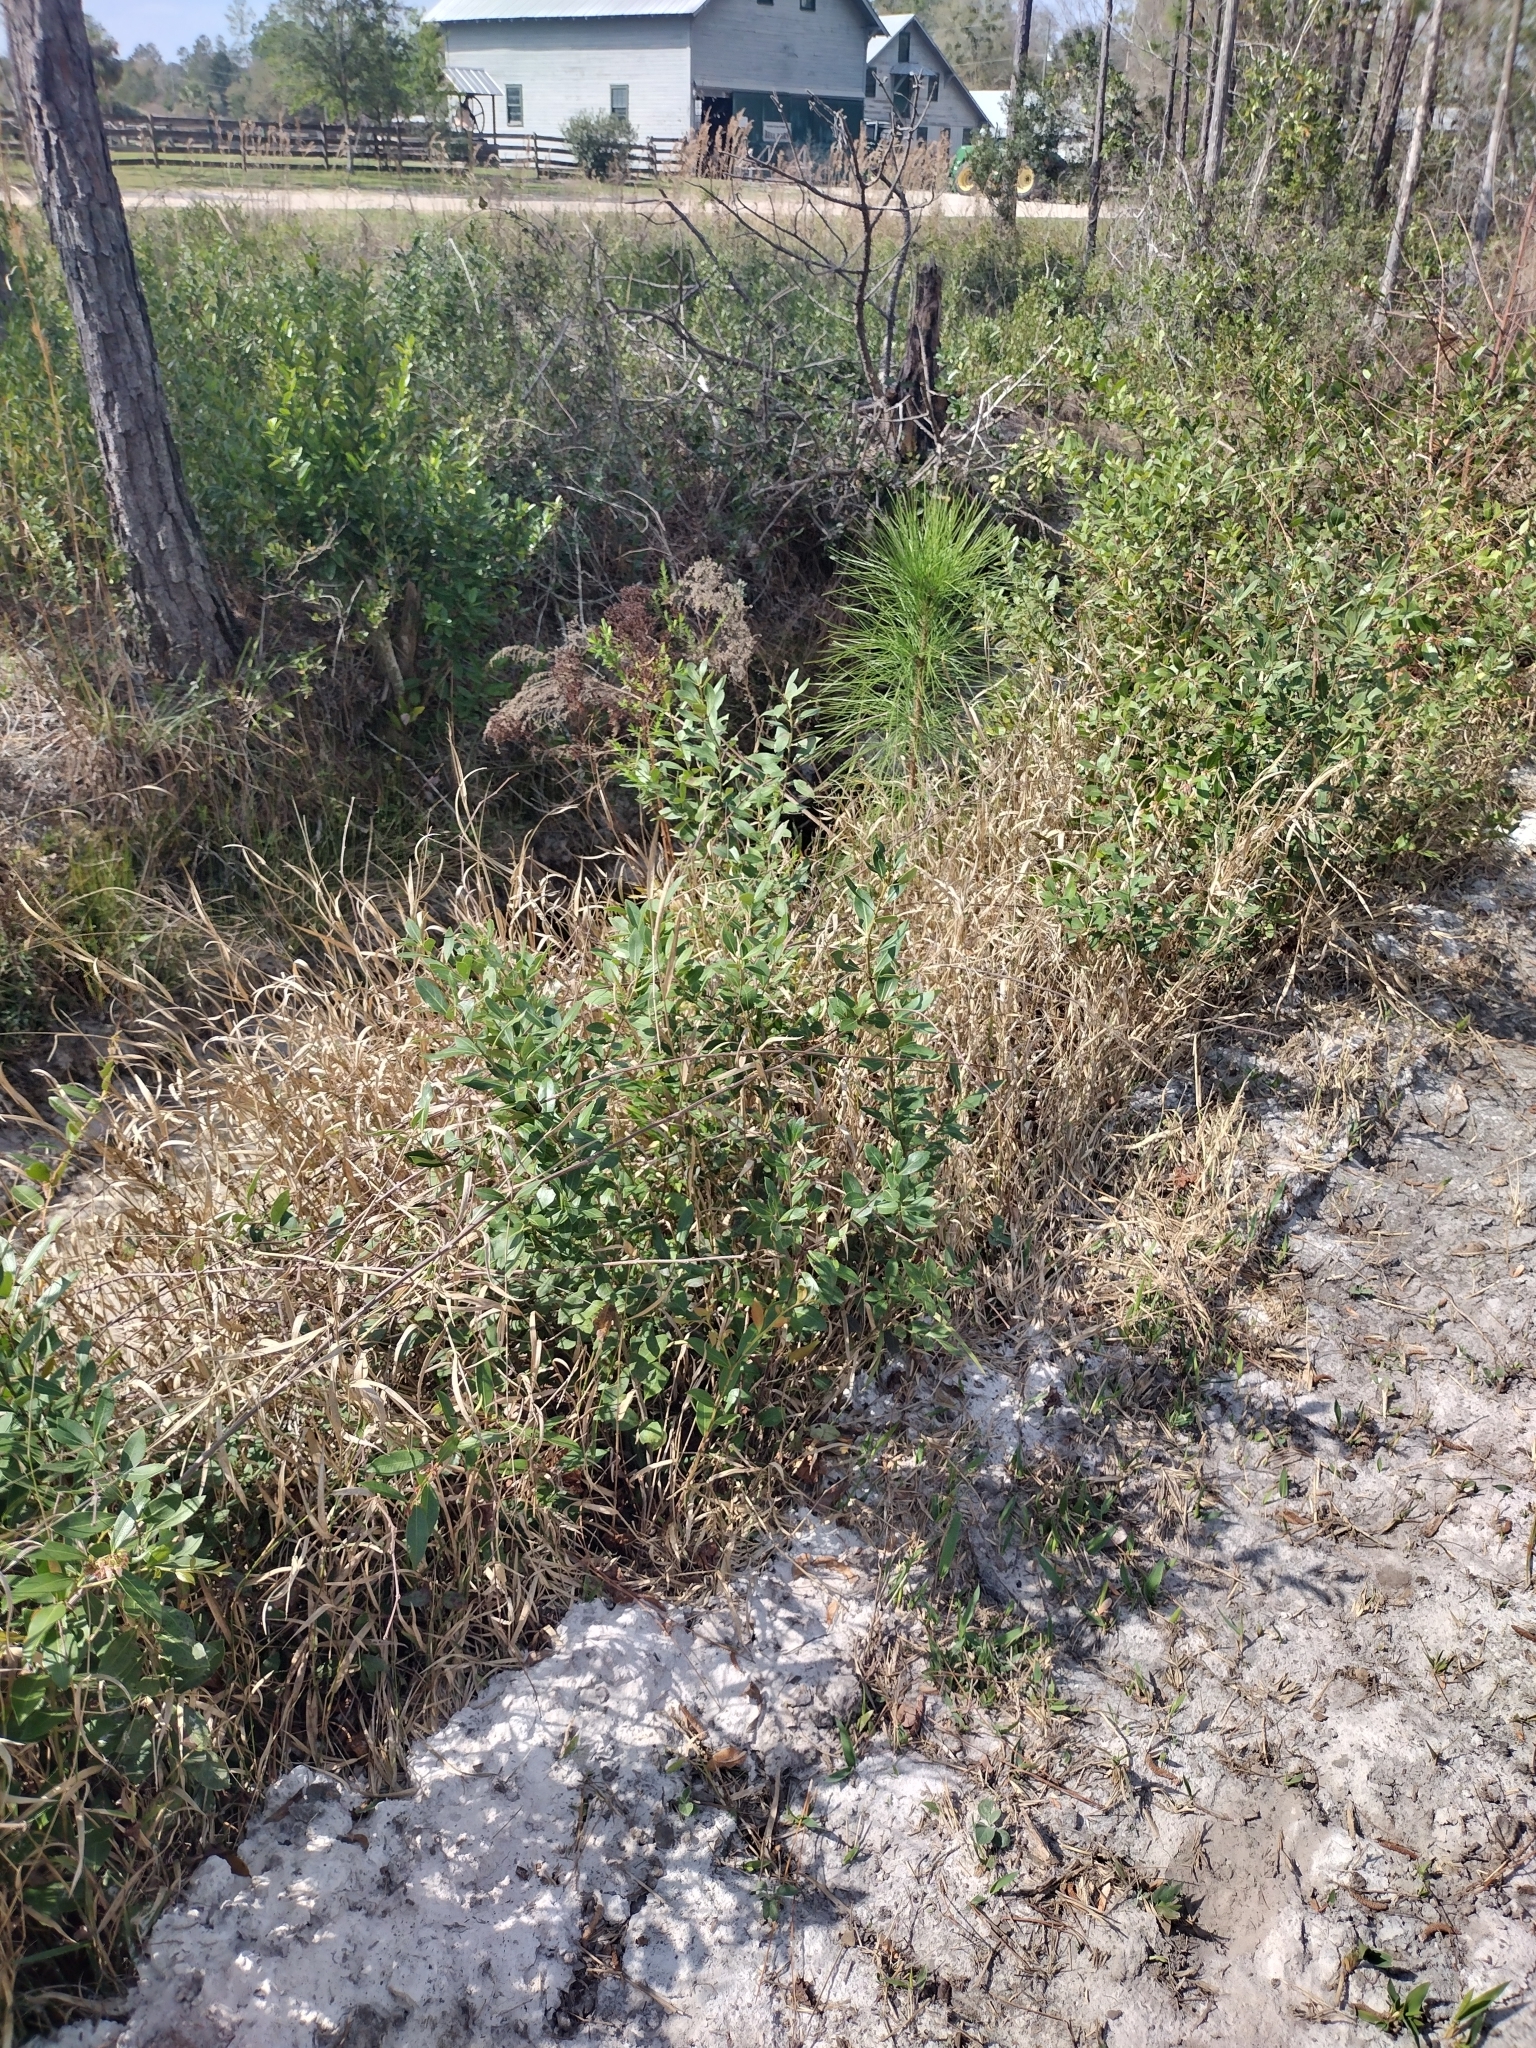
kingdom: Plantae
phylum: Tracheophyta
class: Magnoliopsida
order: Aquifoliales
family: Aquifoliaceae
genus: Ilex
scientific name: Ilex glabra
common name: Bitter gallberry
